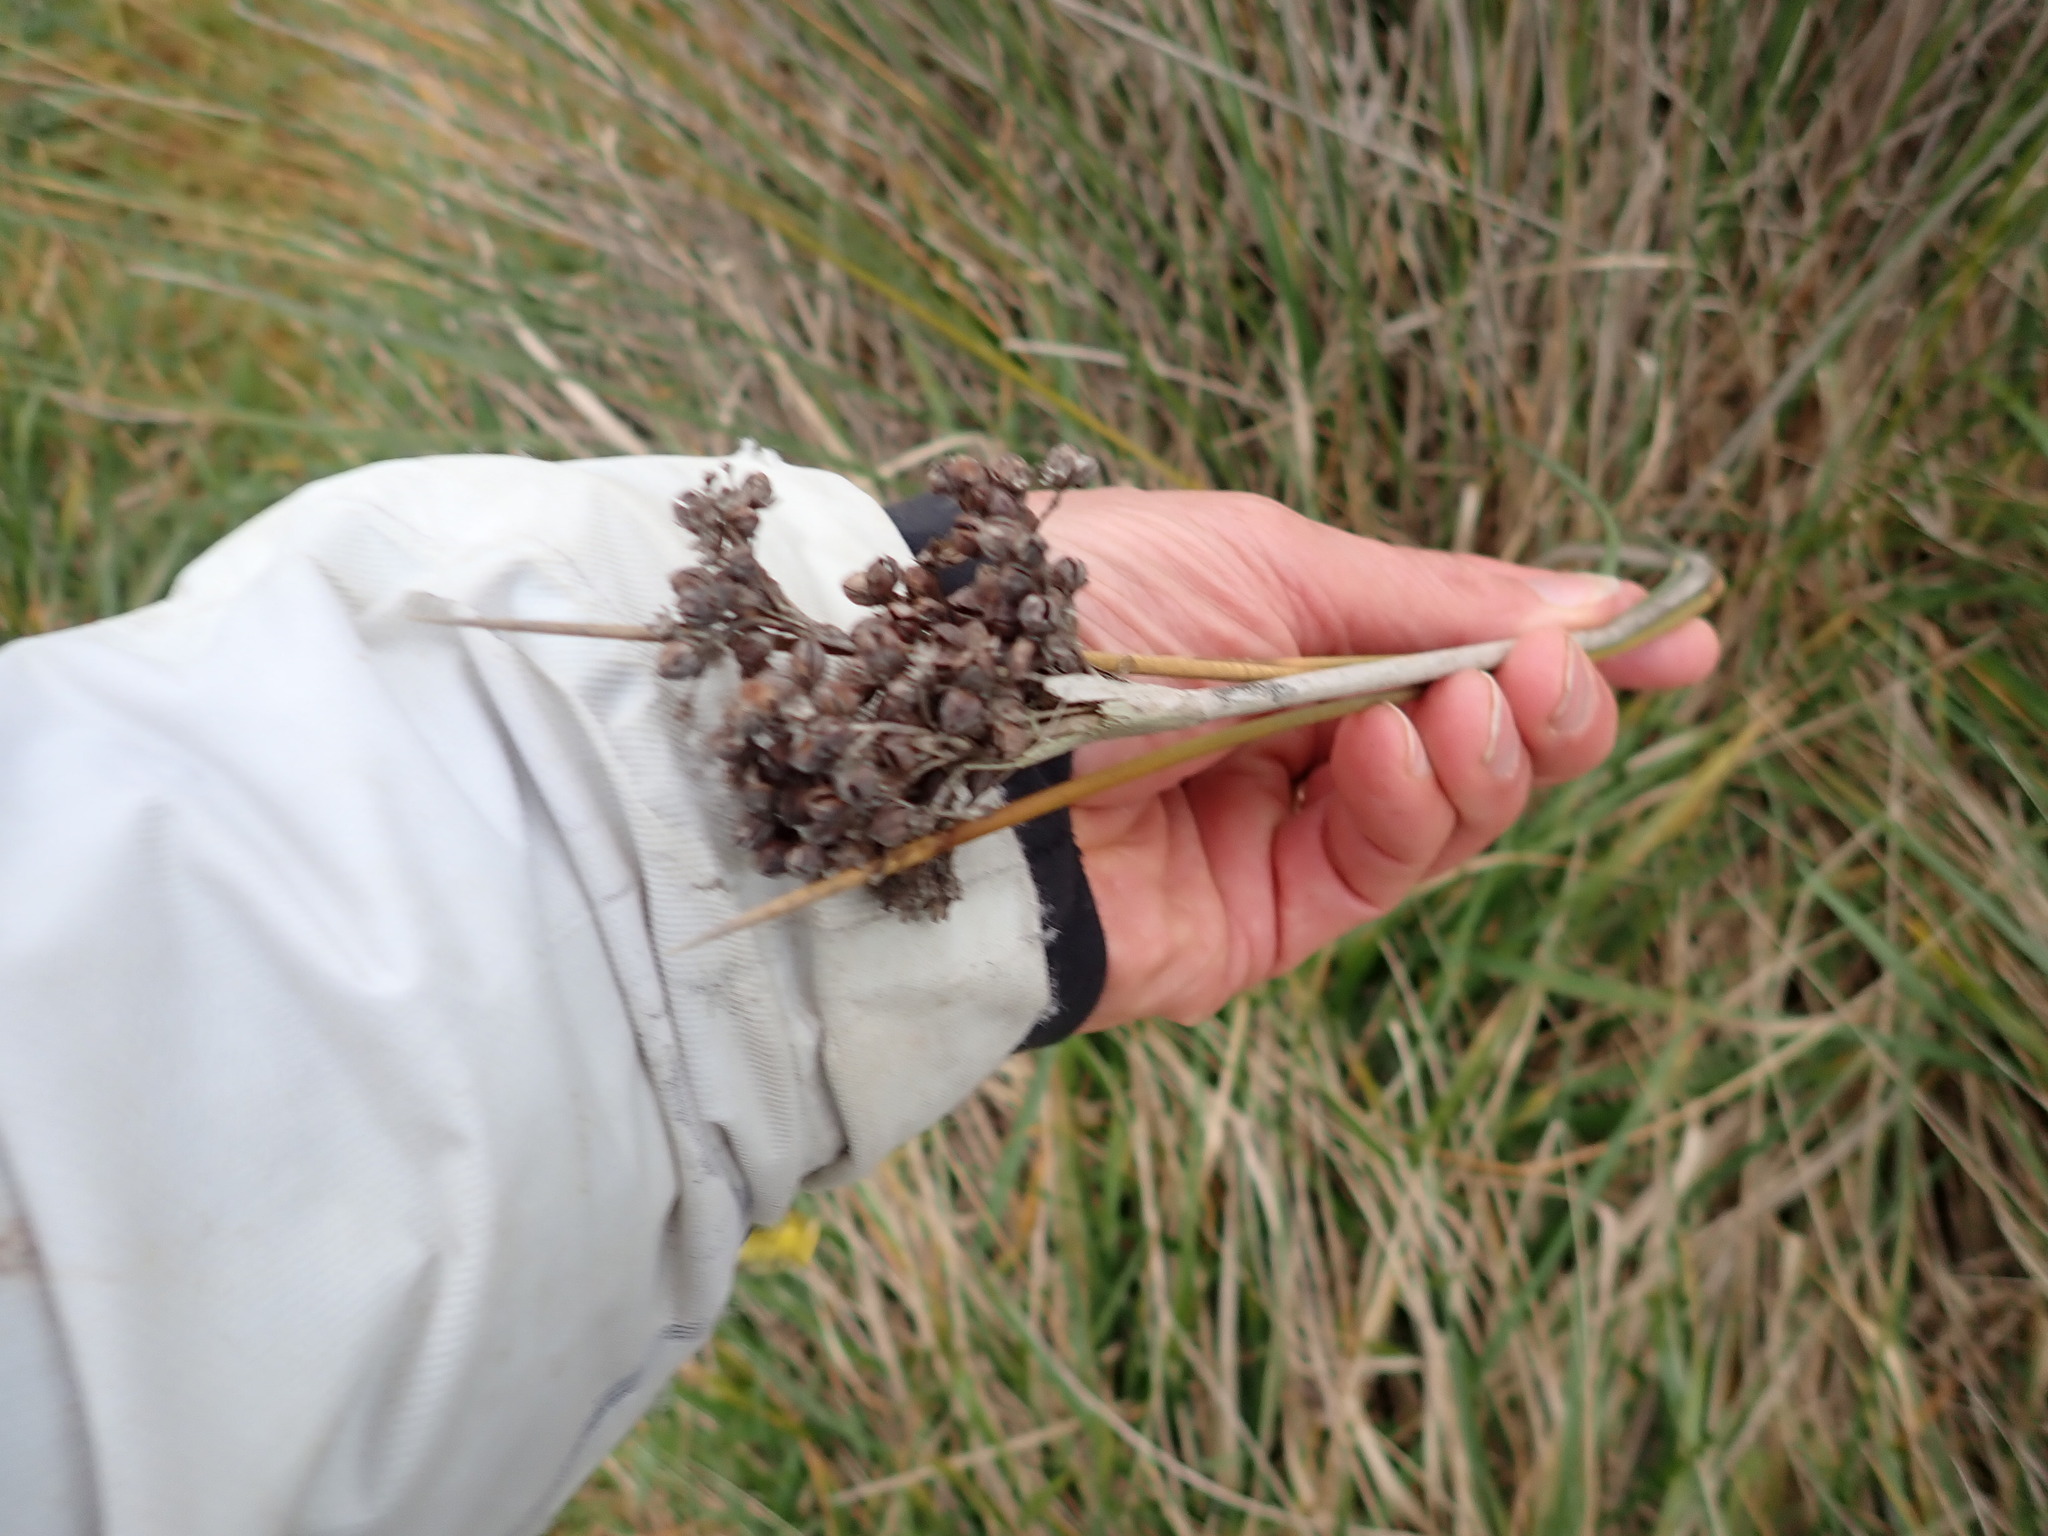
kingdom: Plantae
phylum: Tracheophyta
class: Liliopsida
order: Poales
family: Juncaceae
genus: Juncus
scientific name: Juncus acutus
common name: Sharp rush
